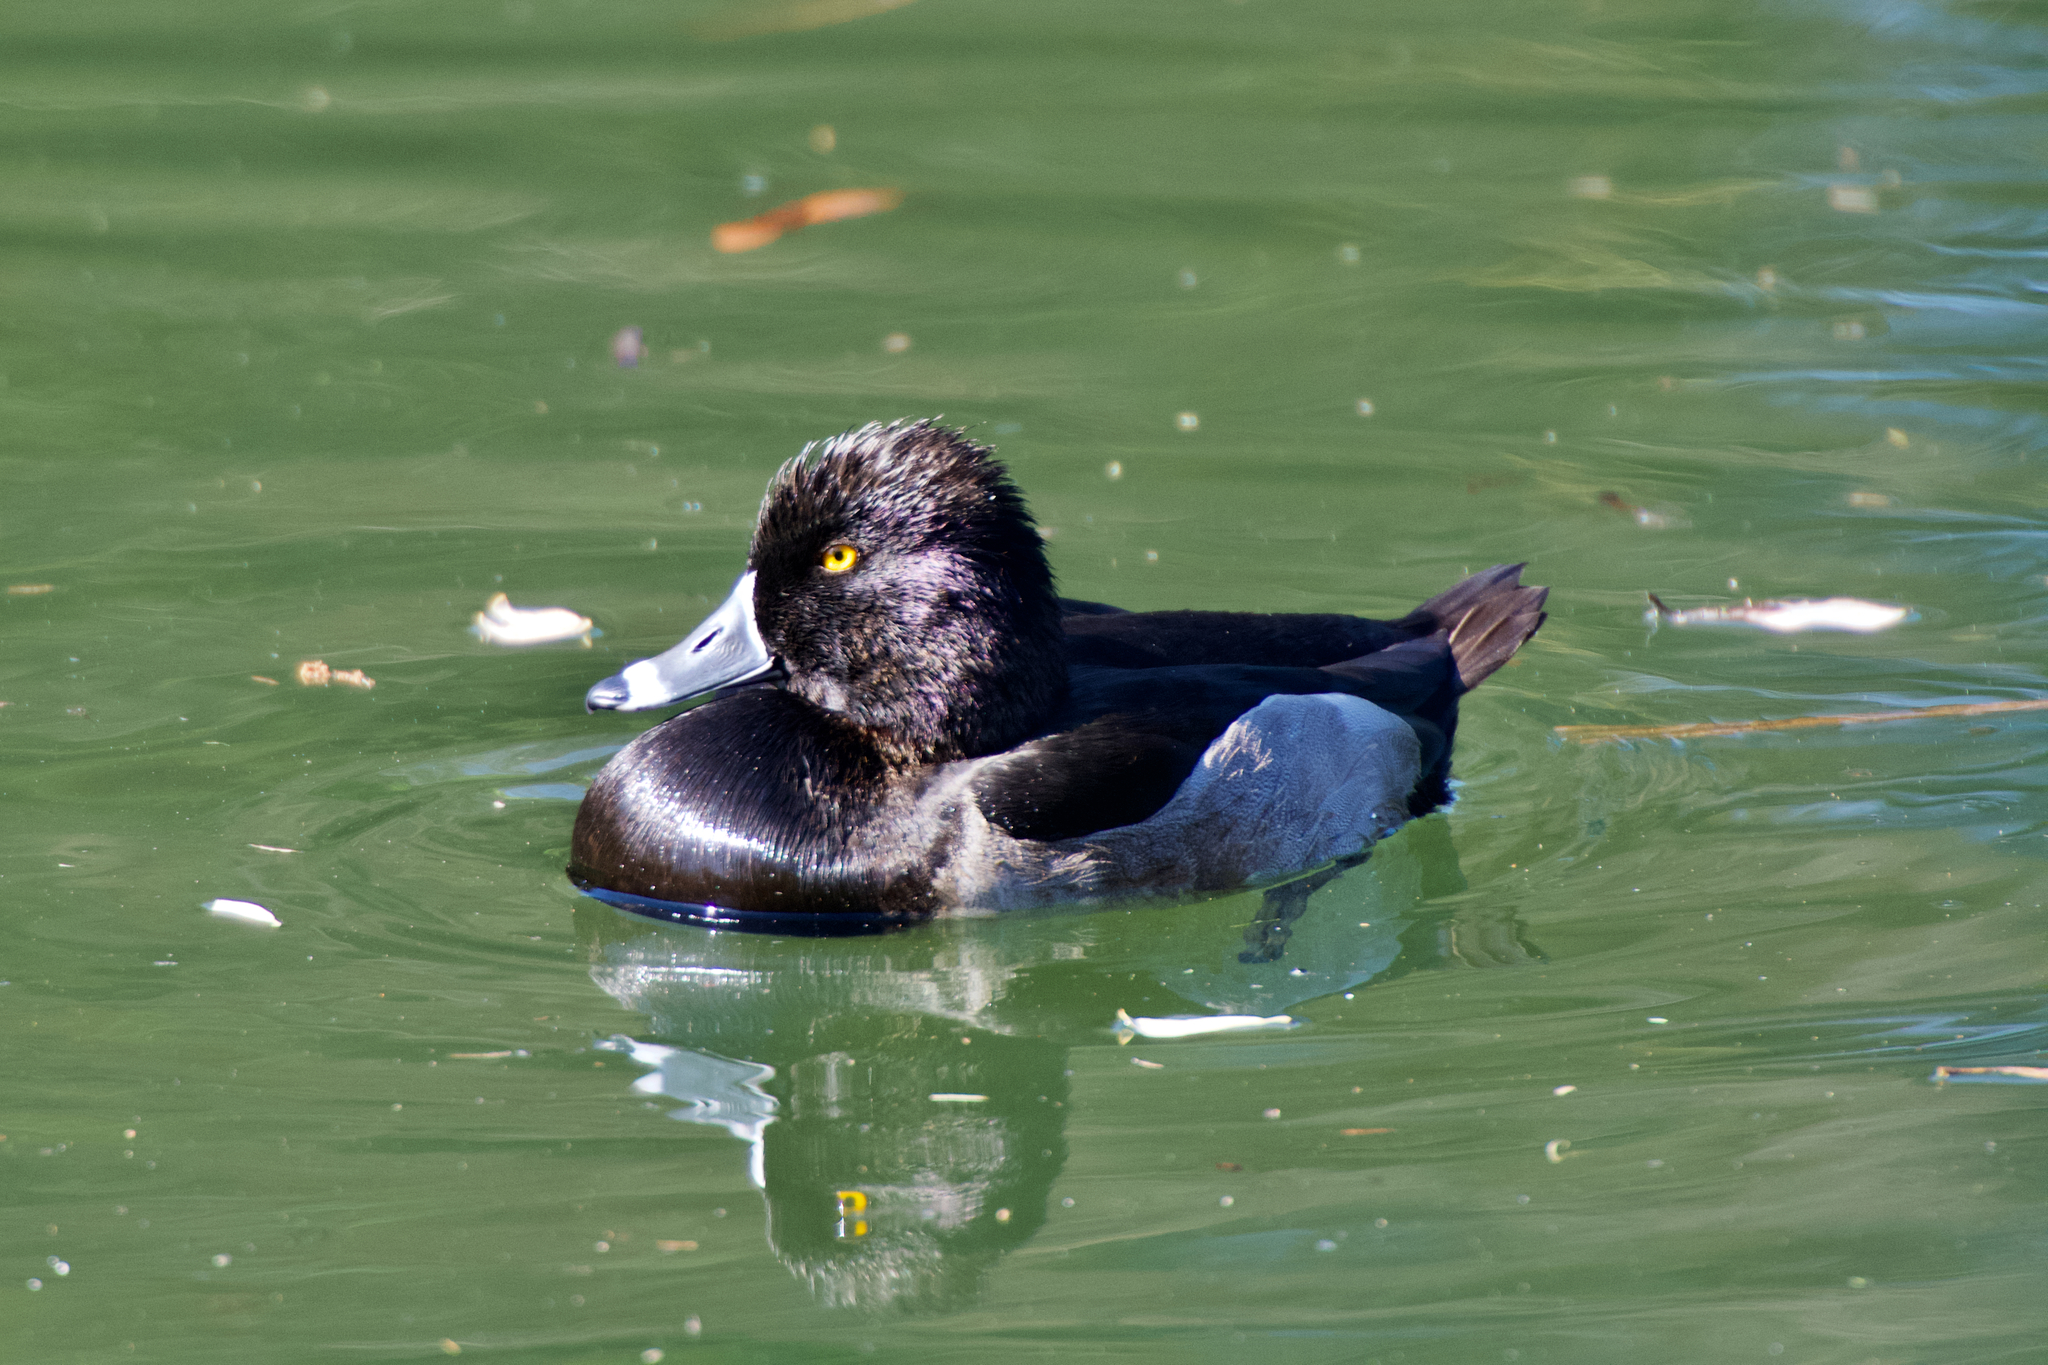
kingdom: Animalia
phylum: Chordata
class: Aves
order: Anseriformes
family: Anatidae
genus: Aythya
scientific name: Aythya collaris
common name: Ring-necked duck
